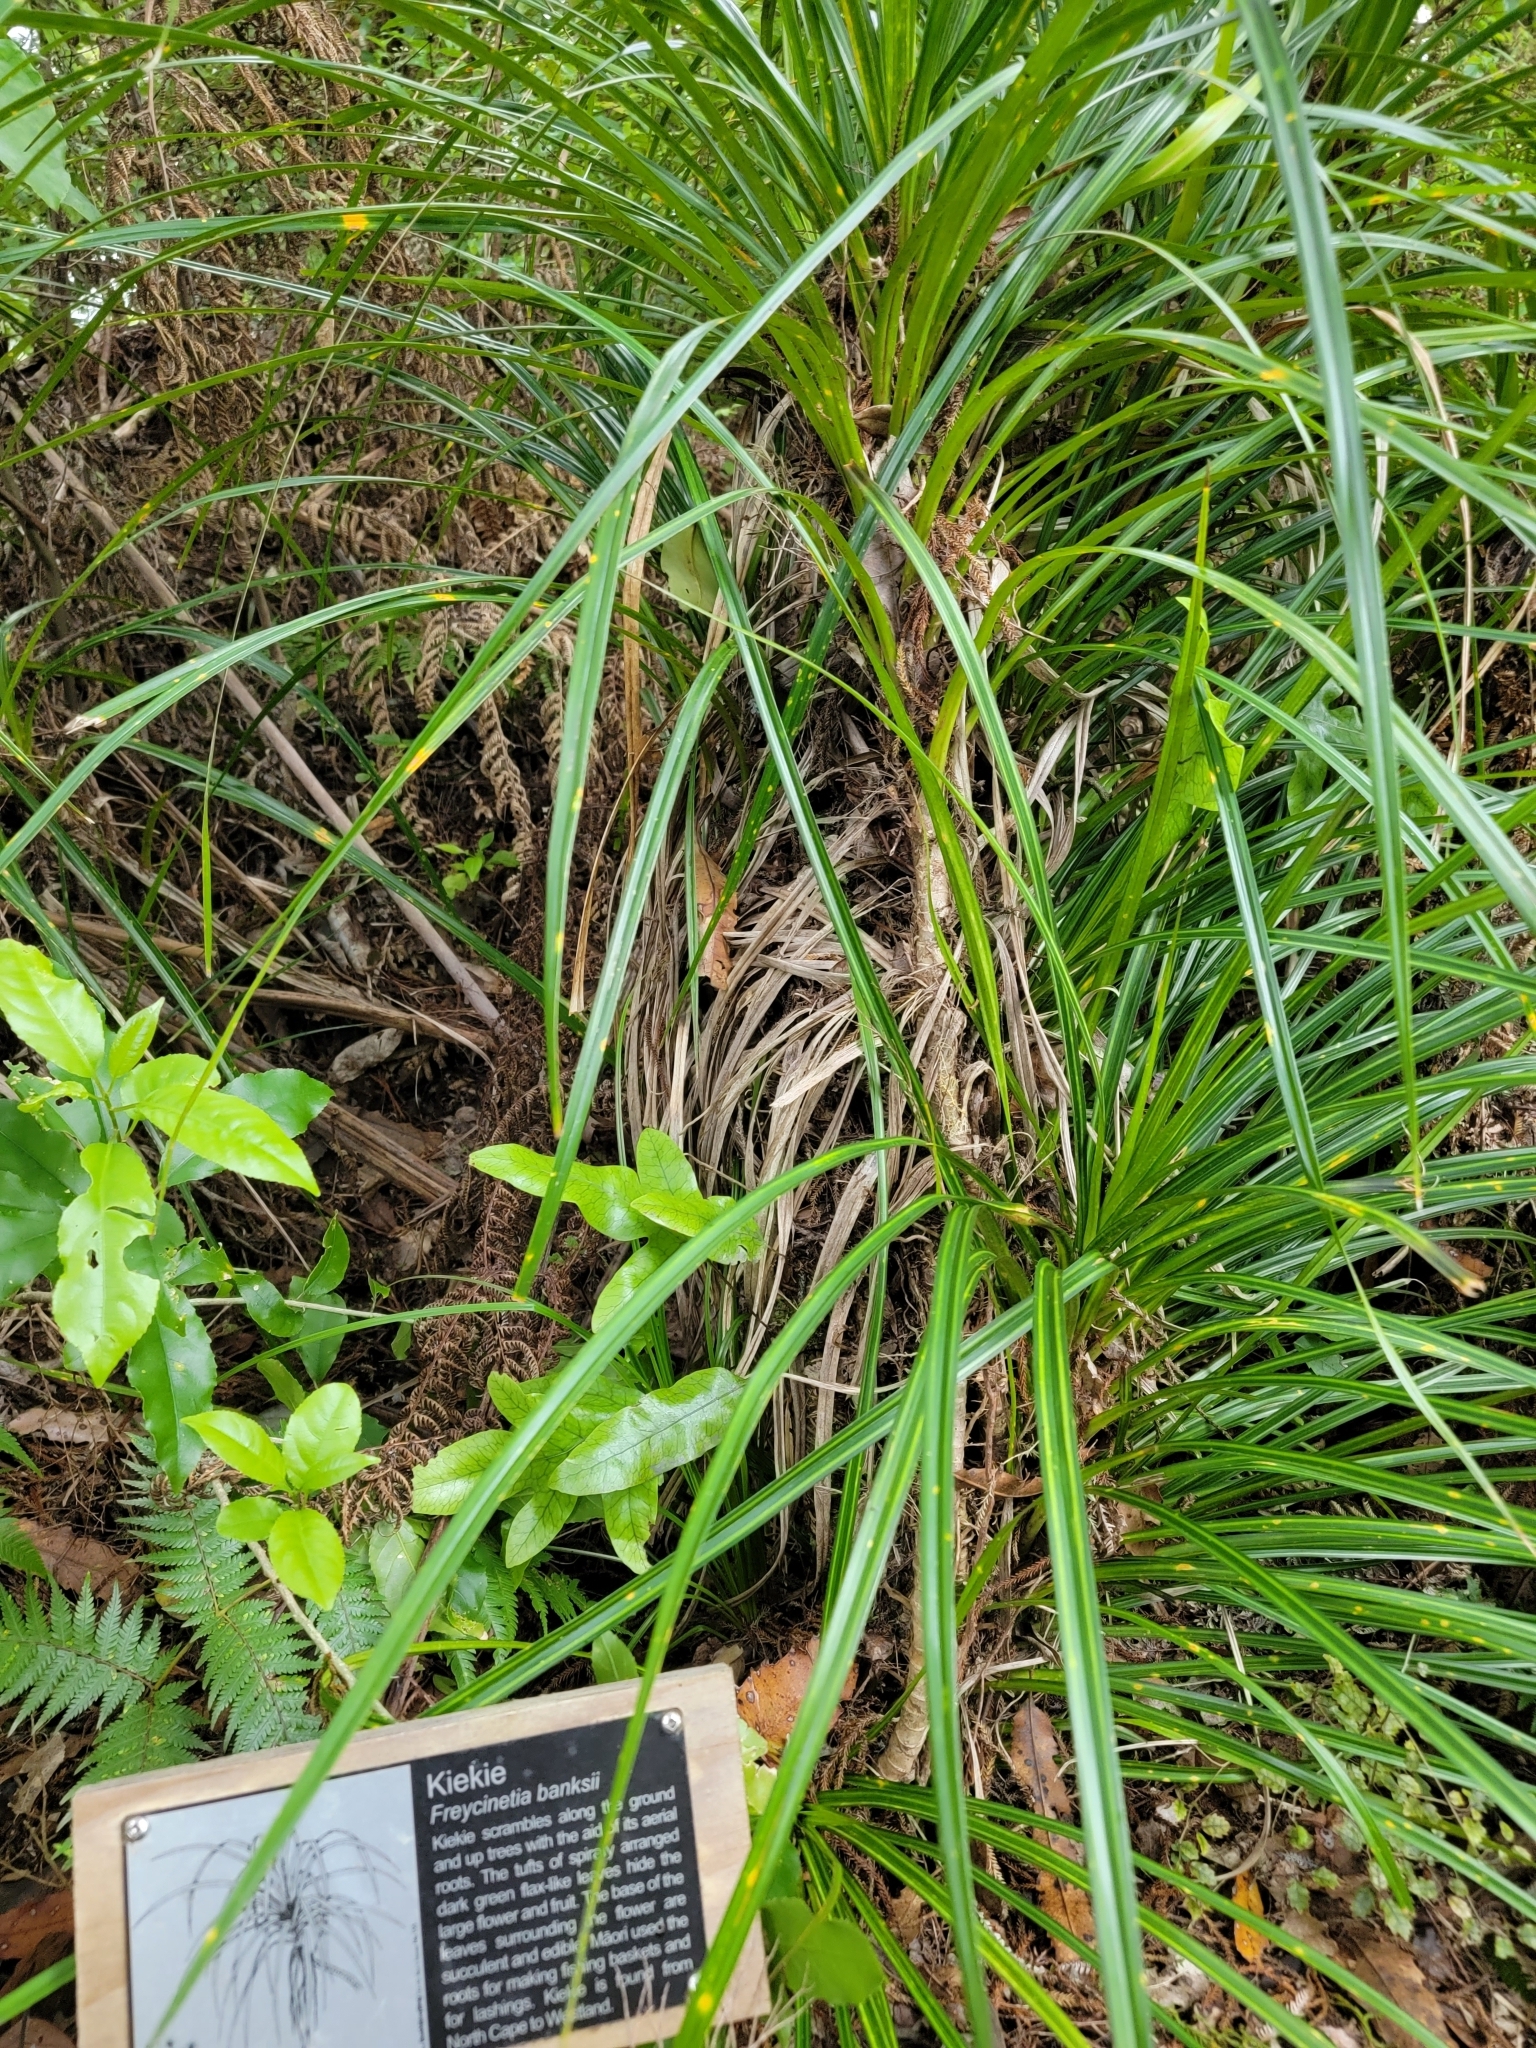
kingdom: Plantae
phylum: Tracheophyta
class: Liliopsida
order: Pandanales
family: Pandanaceae
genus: Freycinetia
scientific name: Freycinetia banksii
